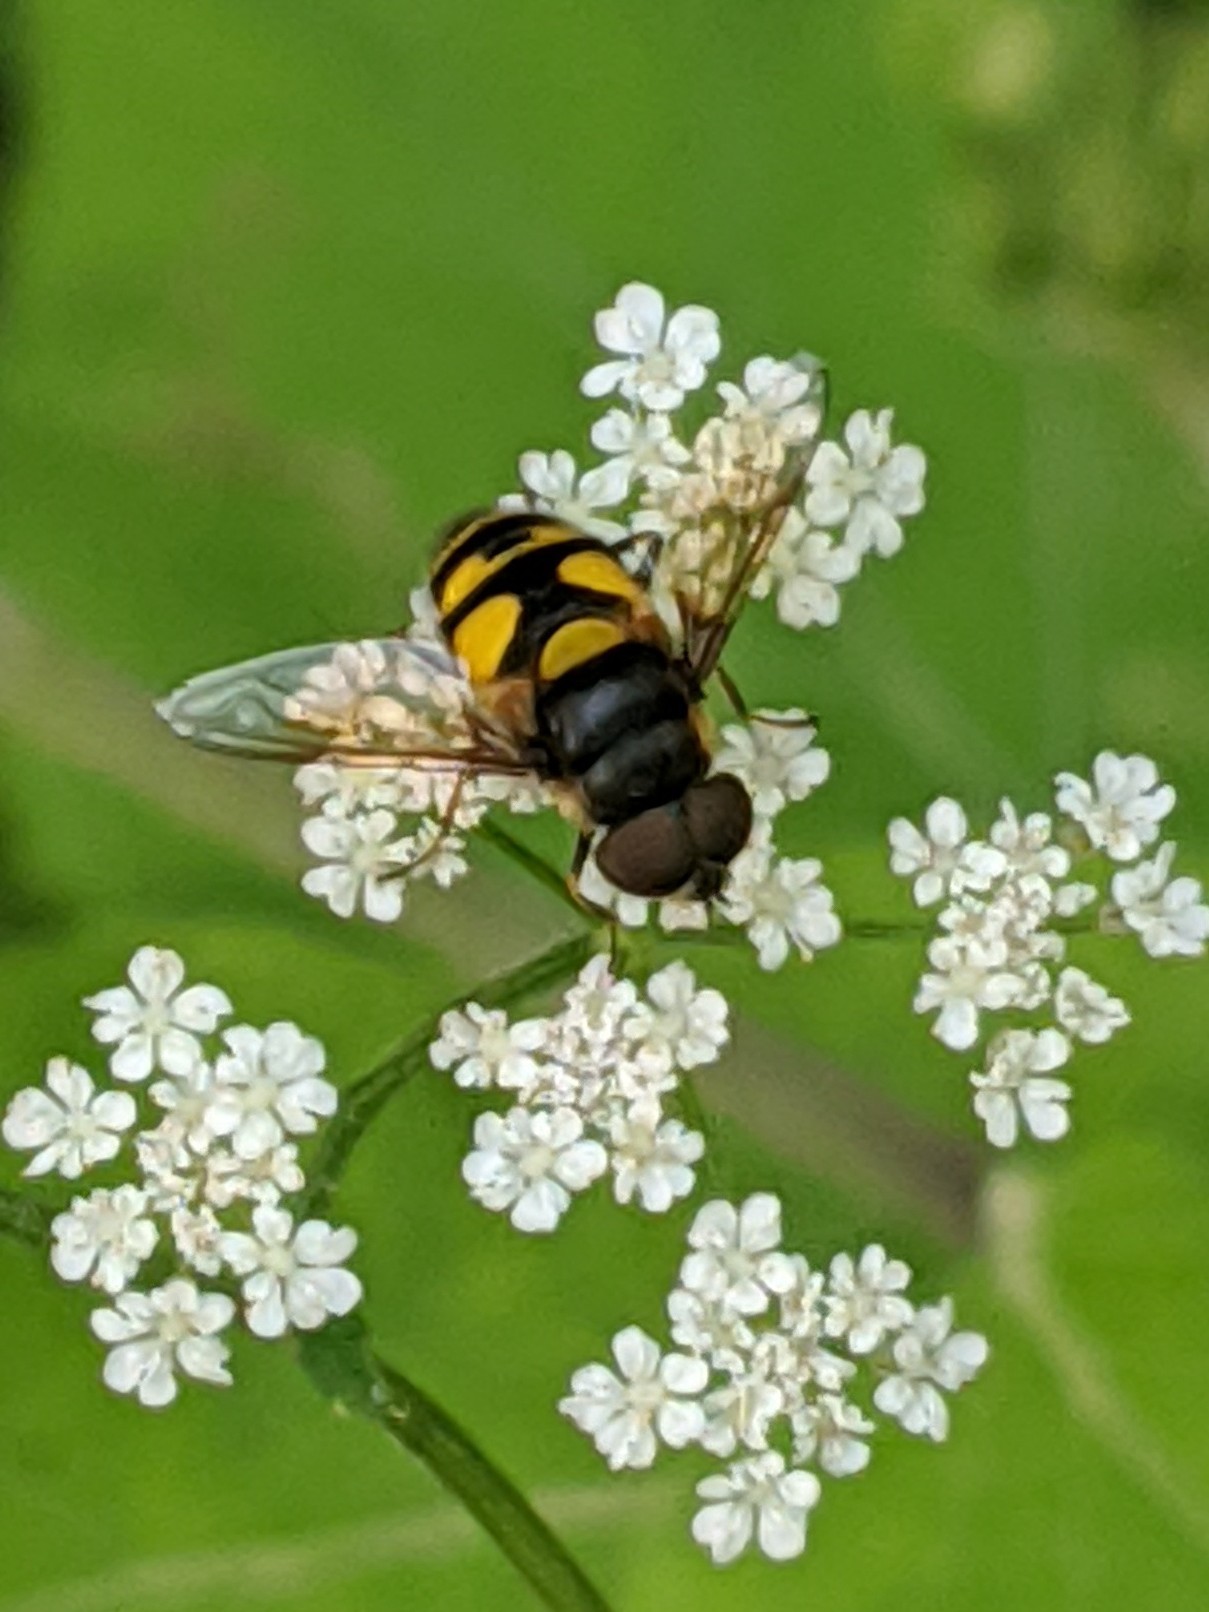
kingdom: Animalia
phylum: Arthropoda
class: Insecta
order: Diptera
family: Syrphidae
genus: Eristalis
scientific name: Eristalis transversa
